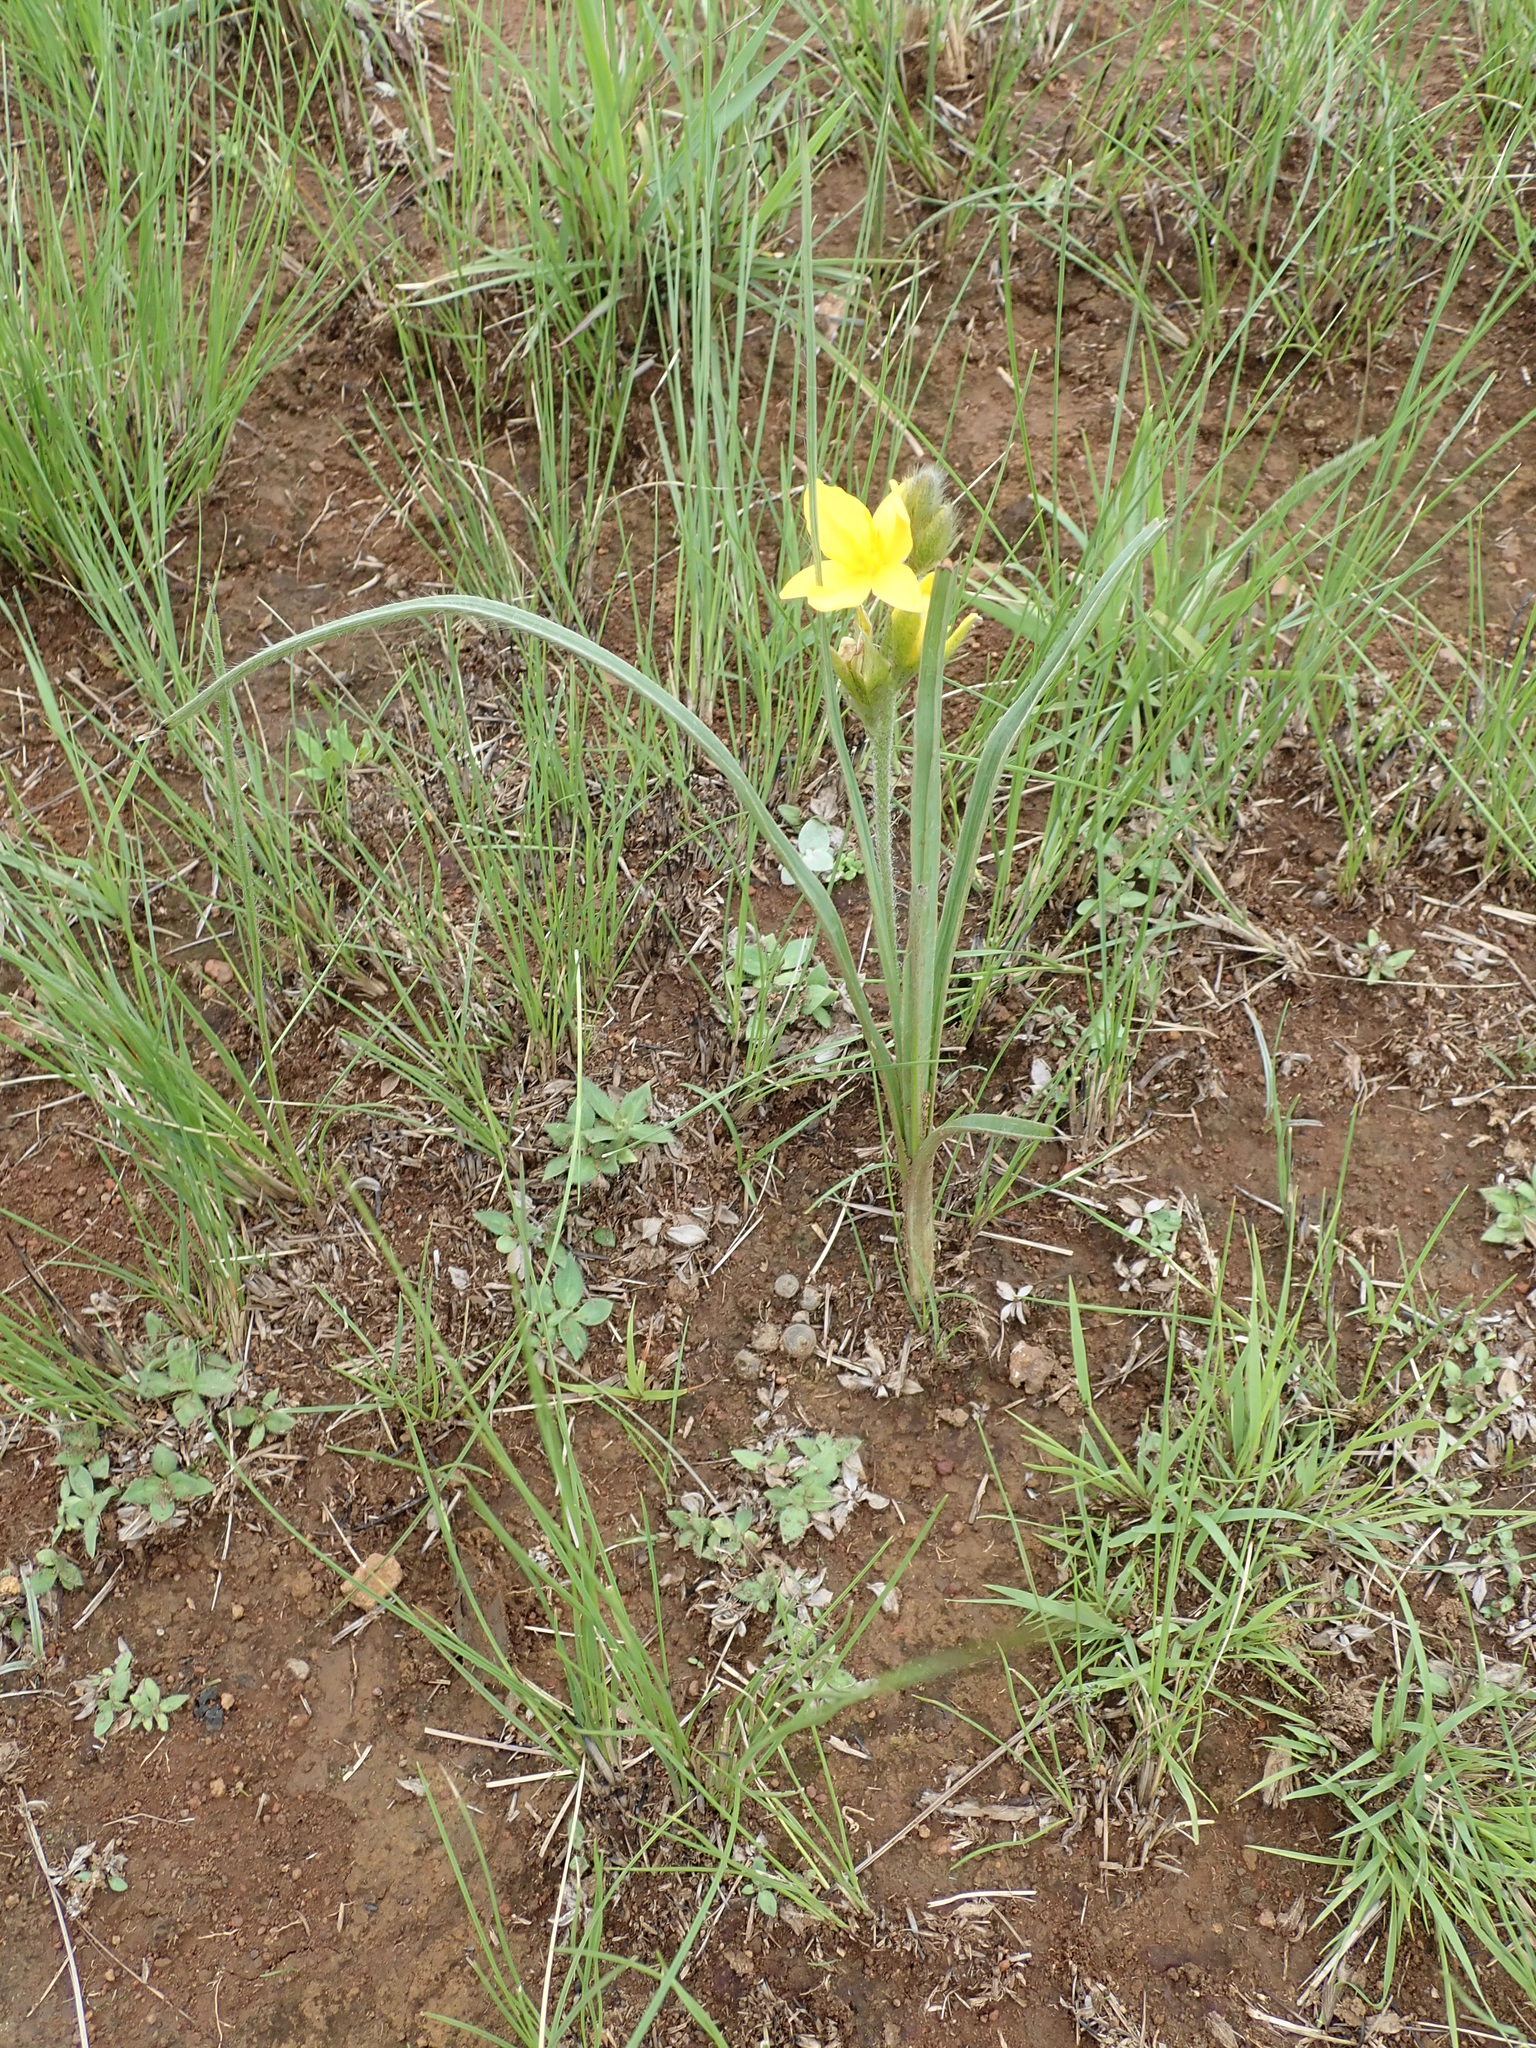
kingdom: Plantae
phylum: Tracheophyta
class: Liliopsida
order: Asparagales
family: Hypoxidaceae
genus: Hypoxis
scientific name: Hypoxis rigidula
